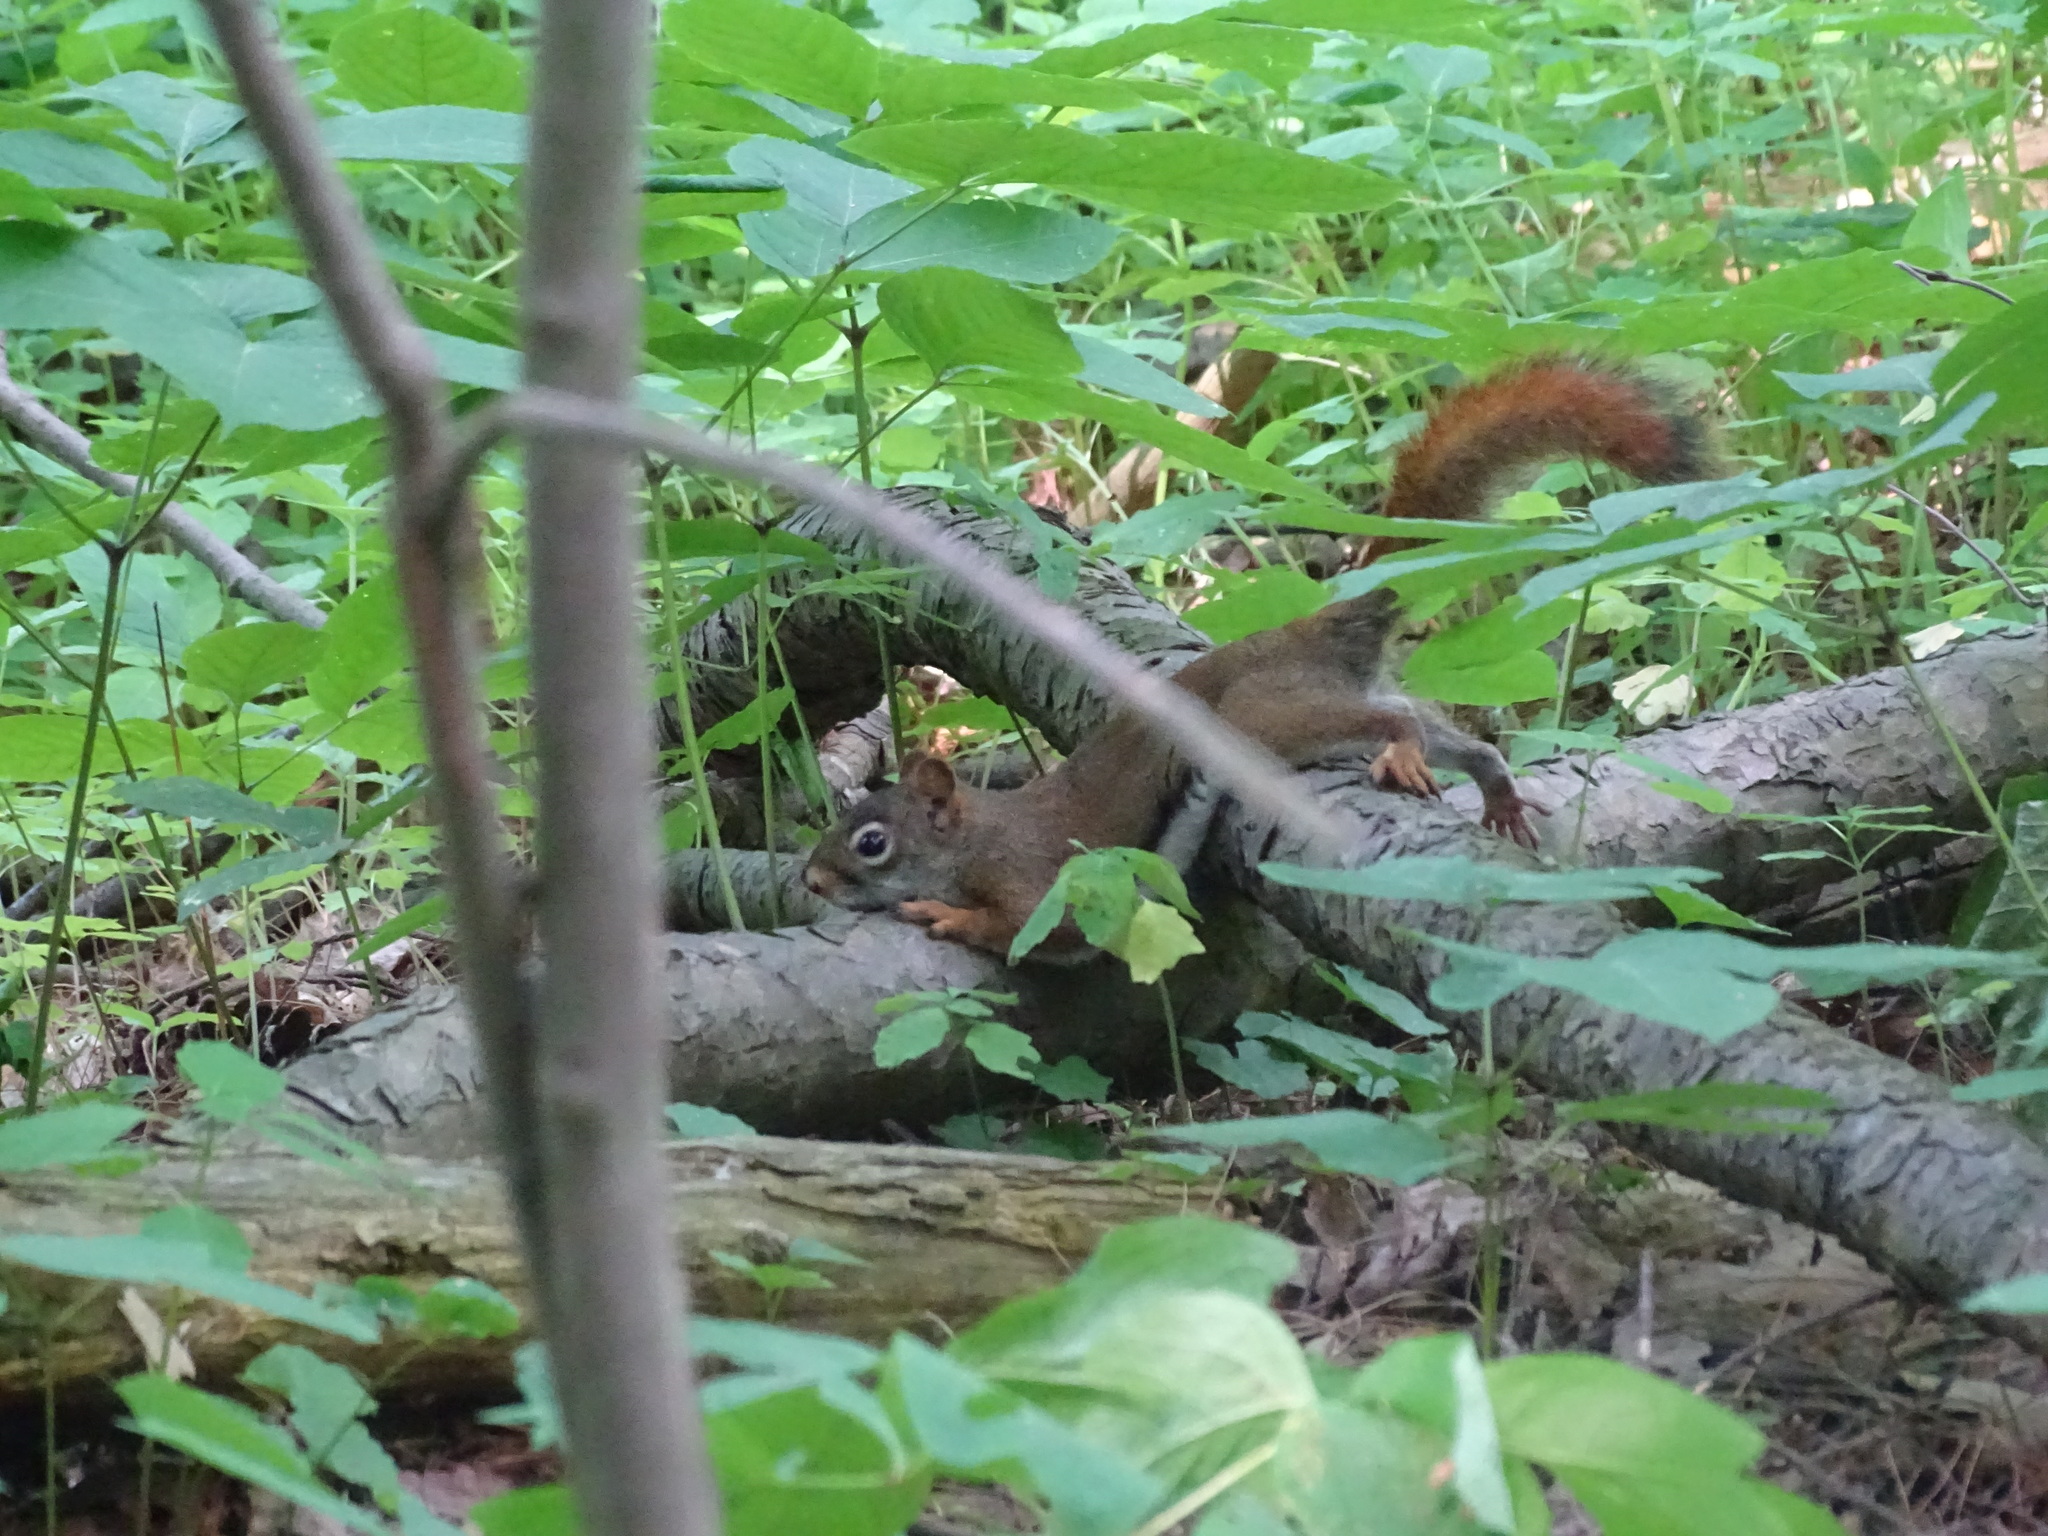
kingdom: Animalia
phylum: Chordata
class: Mammalia
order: Rodentia
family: Sciuridae
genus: Tamiasciurus
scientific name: Tamiasciurus hudsonicus
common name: Red squirrel
